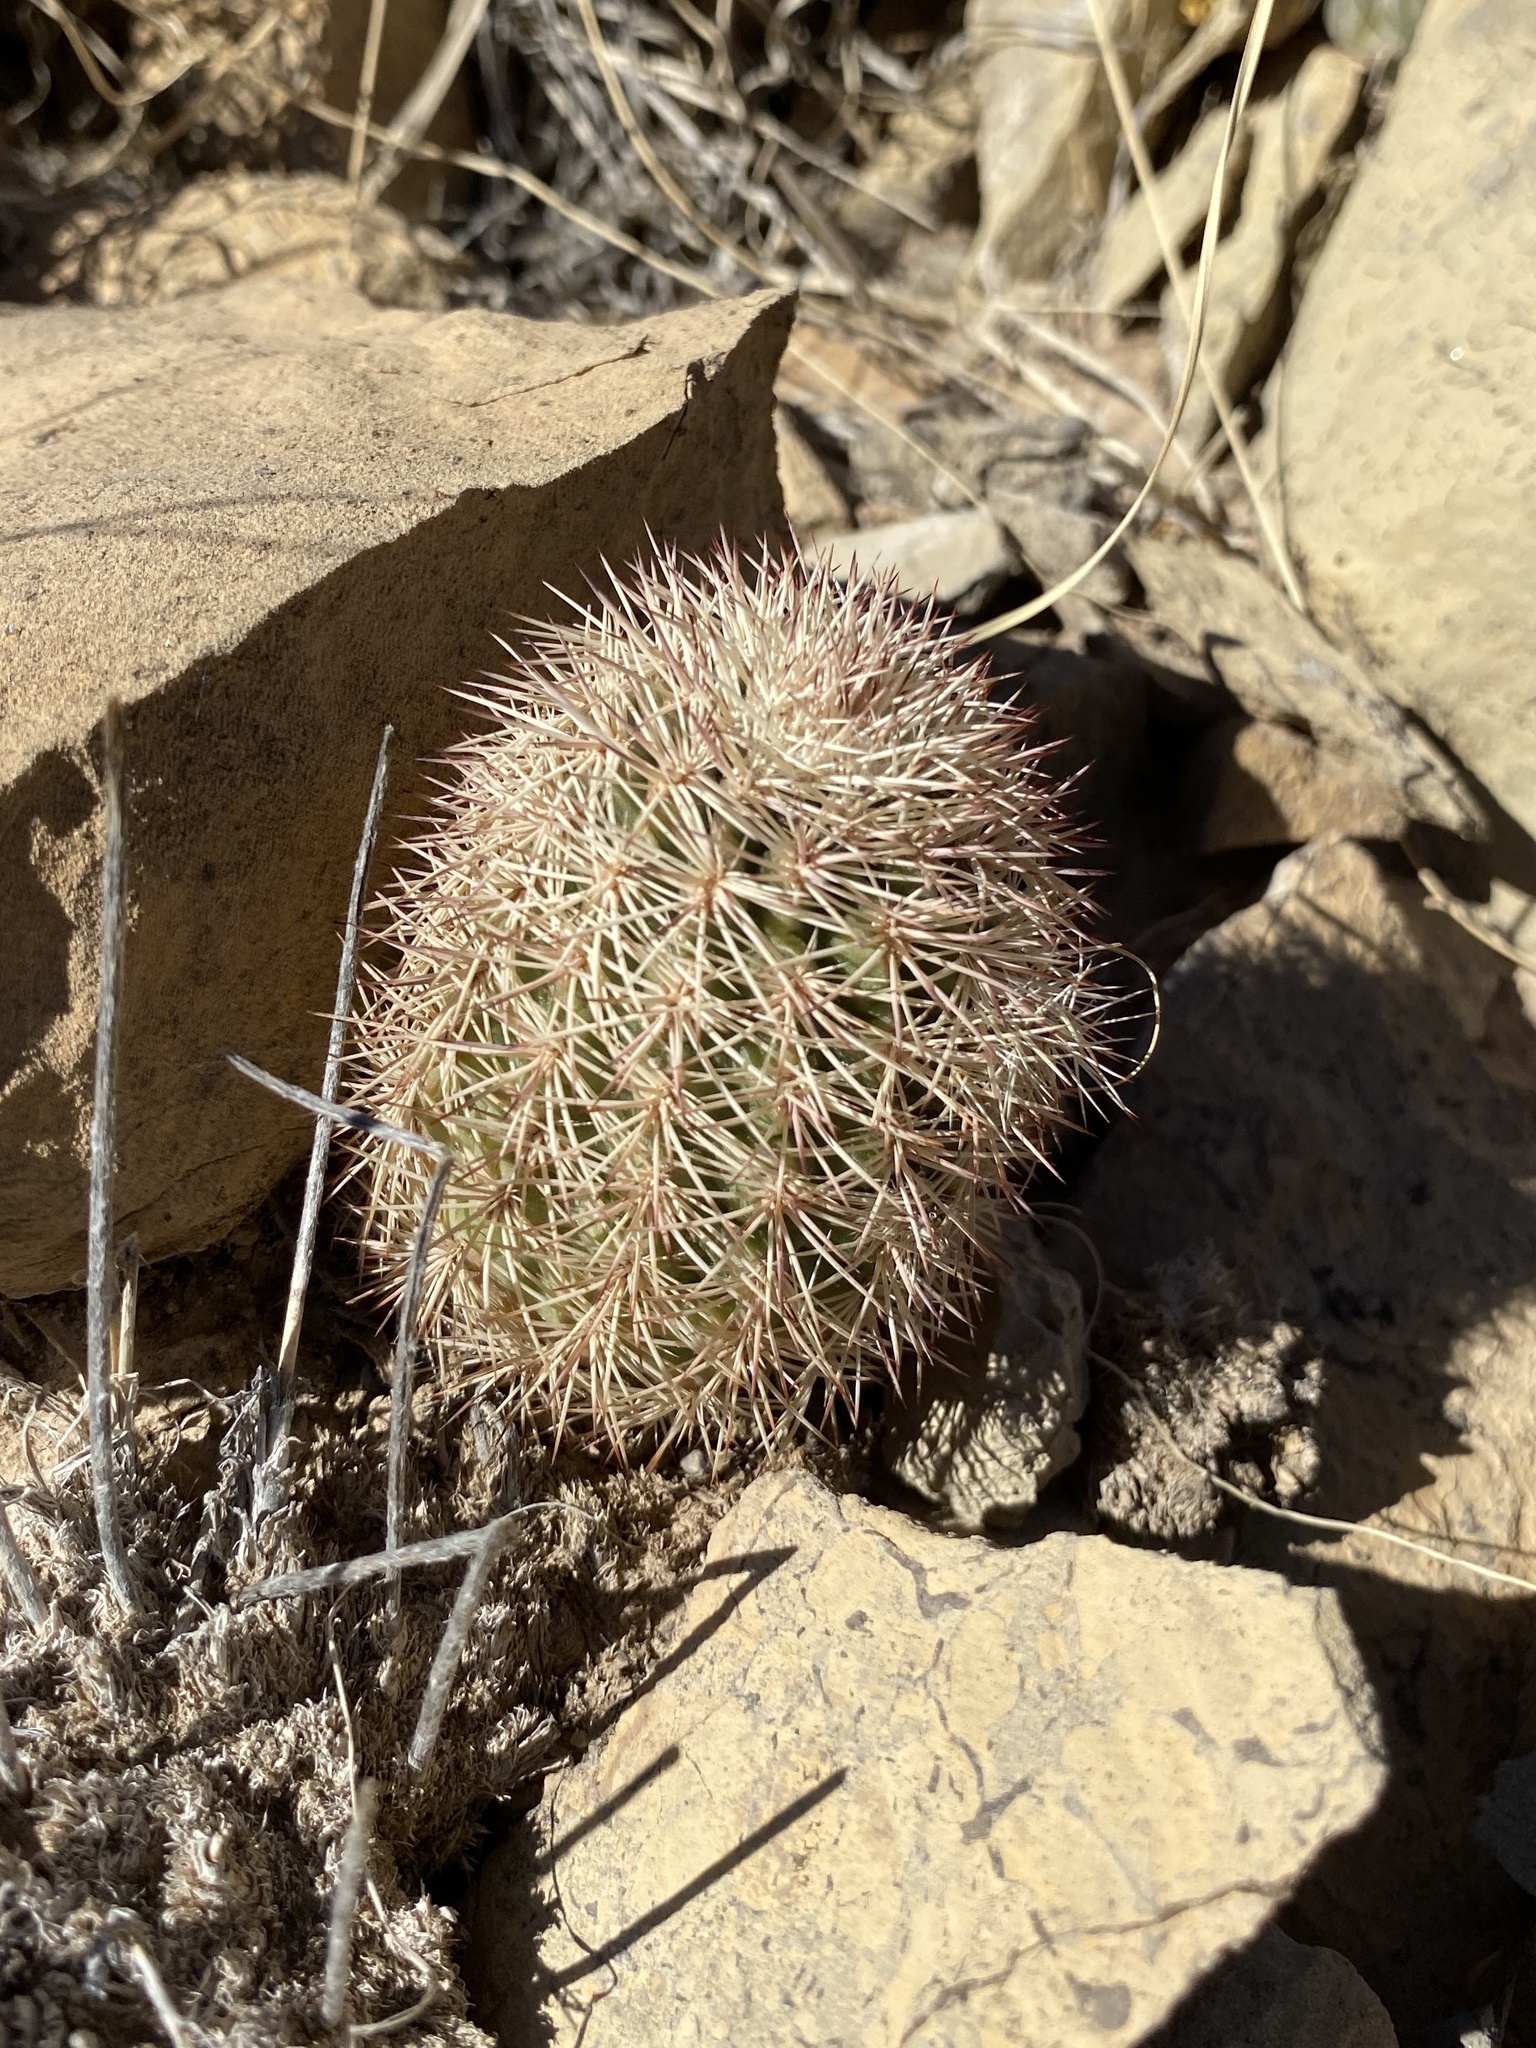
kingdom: Plantae
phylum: Tracheophyta
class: Magnoliopsida
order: Caryophyllales
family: Cactaceae
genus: Echinocereus
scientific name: Echinocereus dasyacanthus
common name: Spiny hedgehog cactus
